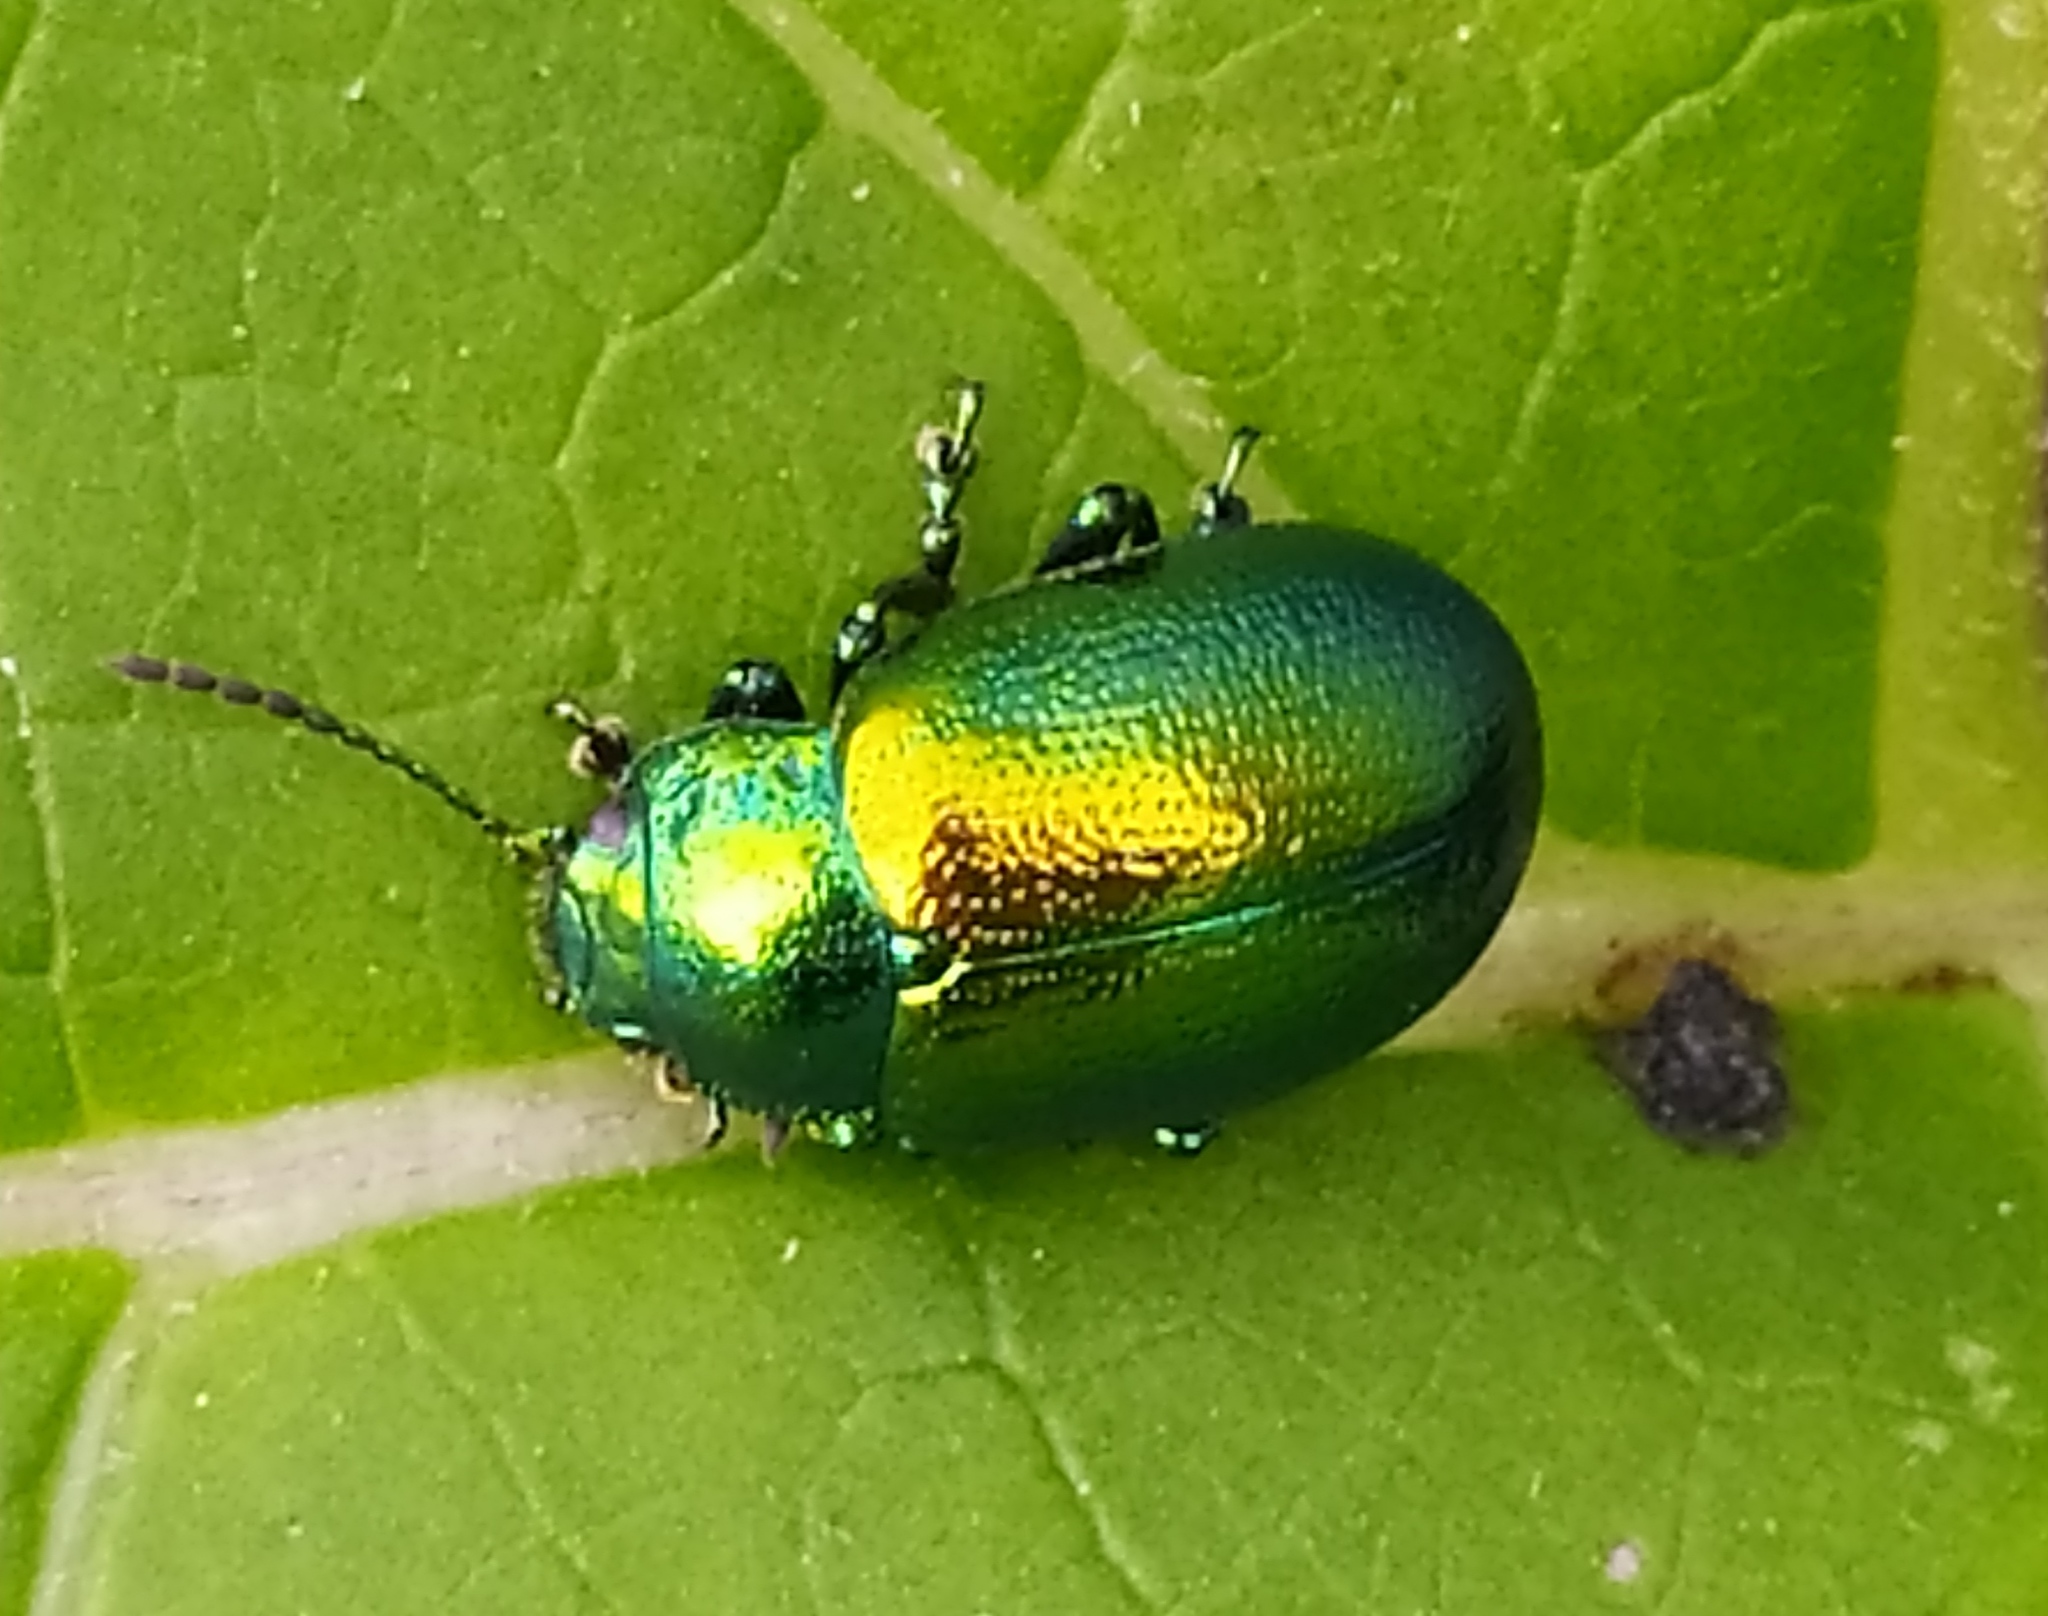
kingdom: Animalia
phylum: Arthropoda
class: Insecta
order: Coleoptera
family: Chrysomelidae
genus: Chrysolina
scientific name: Chrysolina graminis
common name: Tansey beetle
